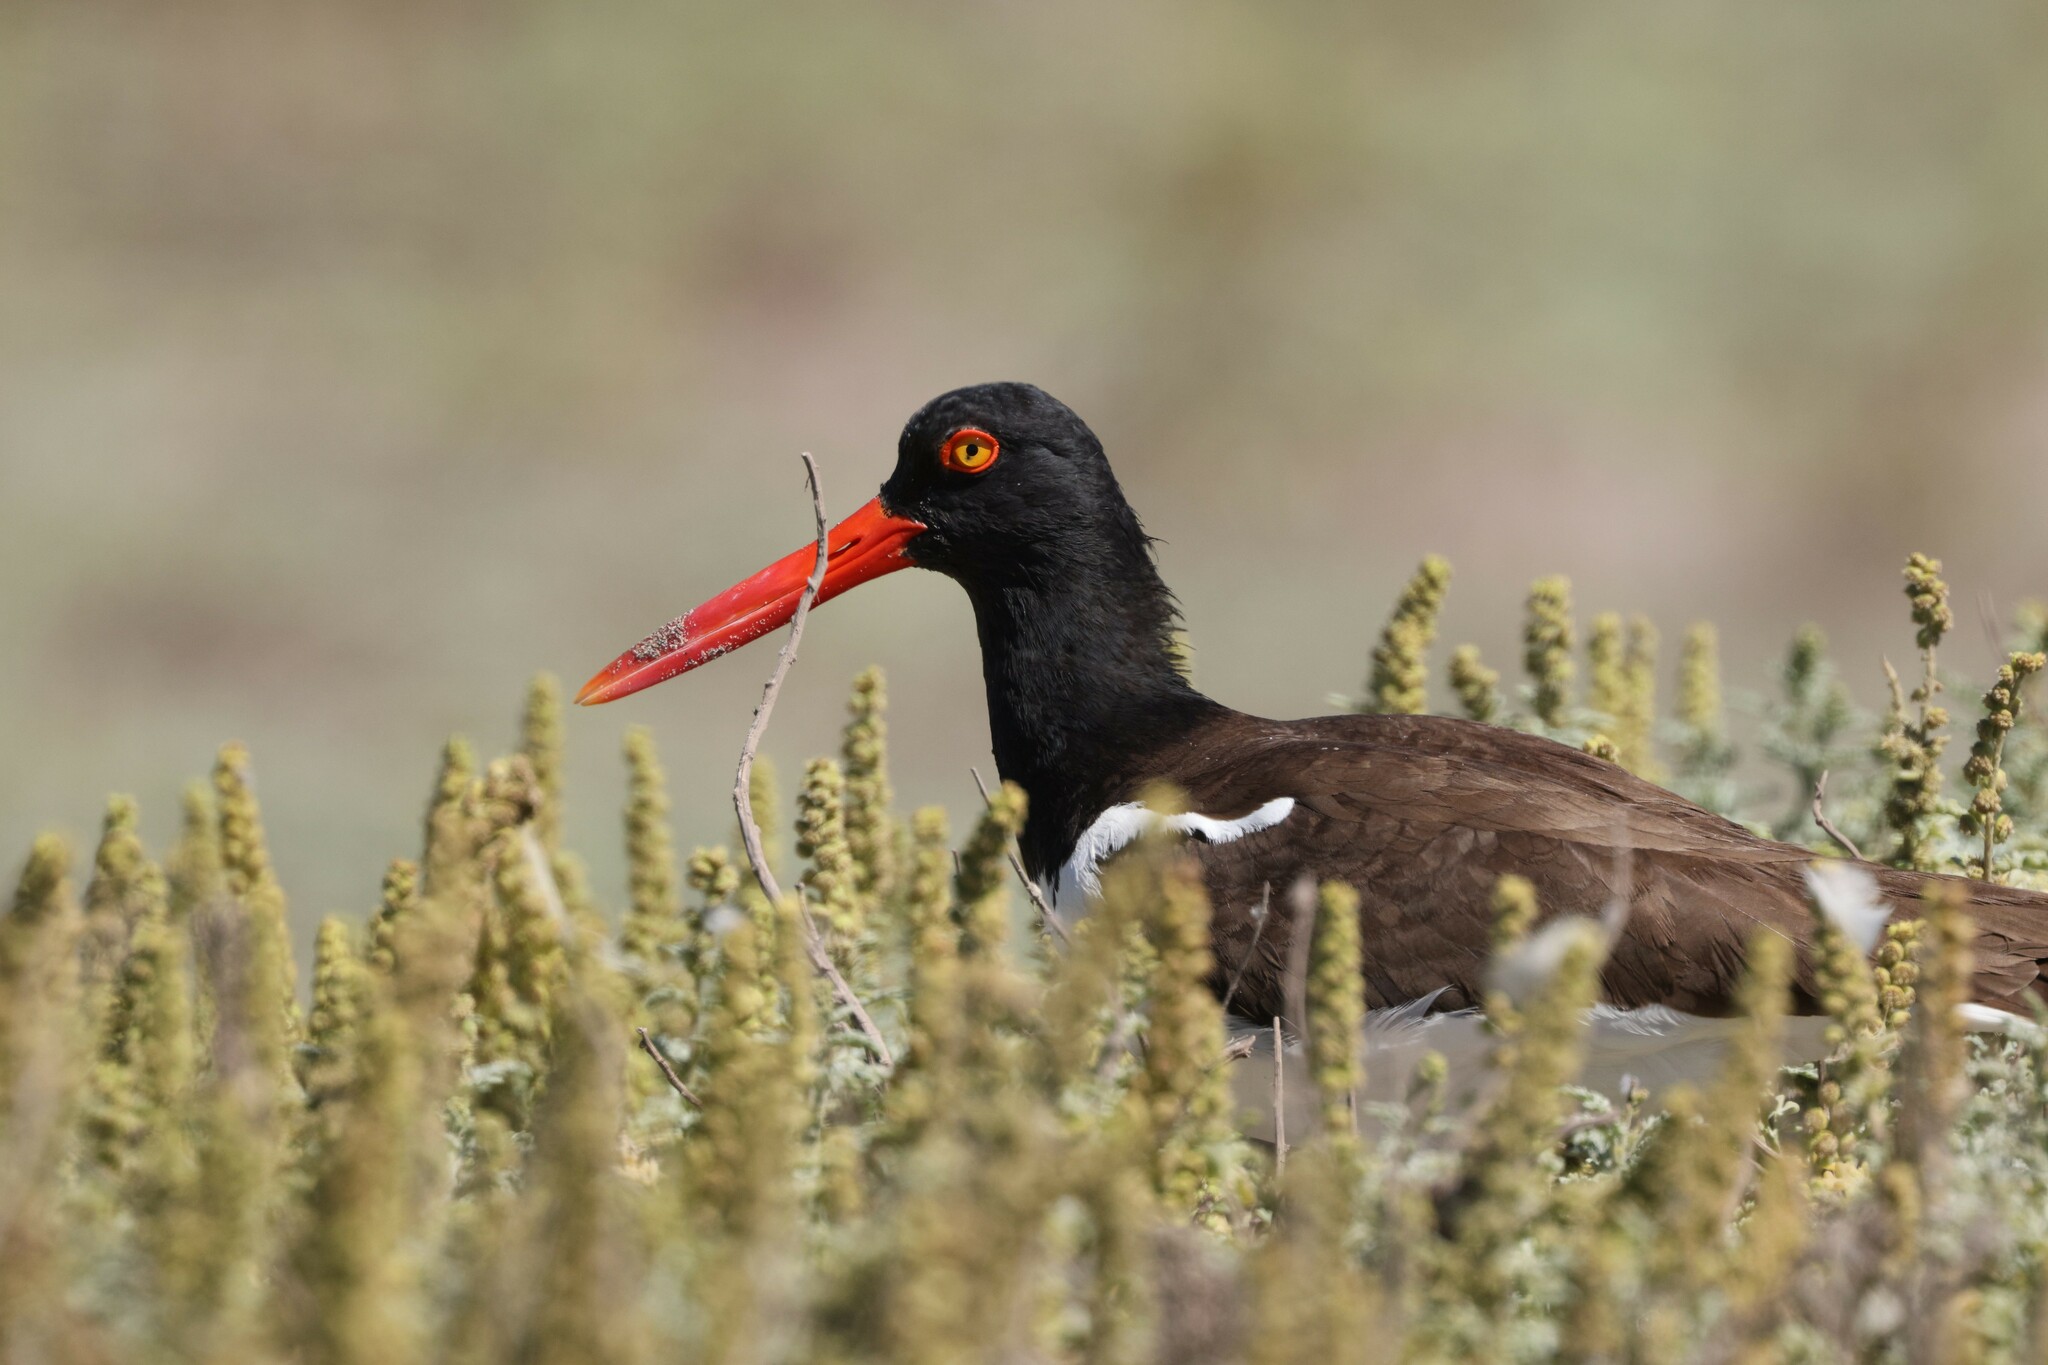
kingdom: Animalia
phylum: Chordata
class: Aves
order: Charadriiformes
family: Haematopodidae
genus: Haematopus
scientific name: Haematopus palliatus
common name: American oystercatcher
